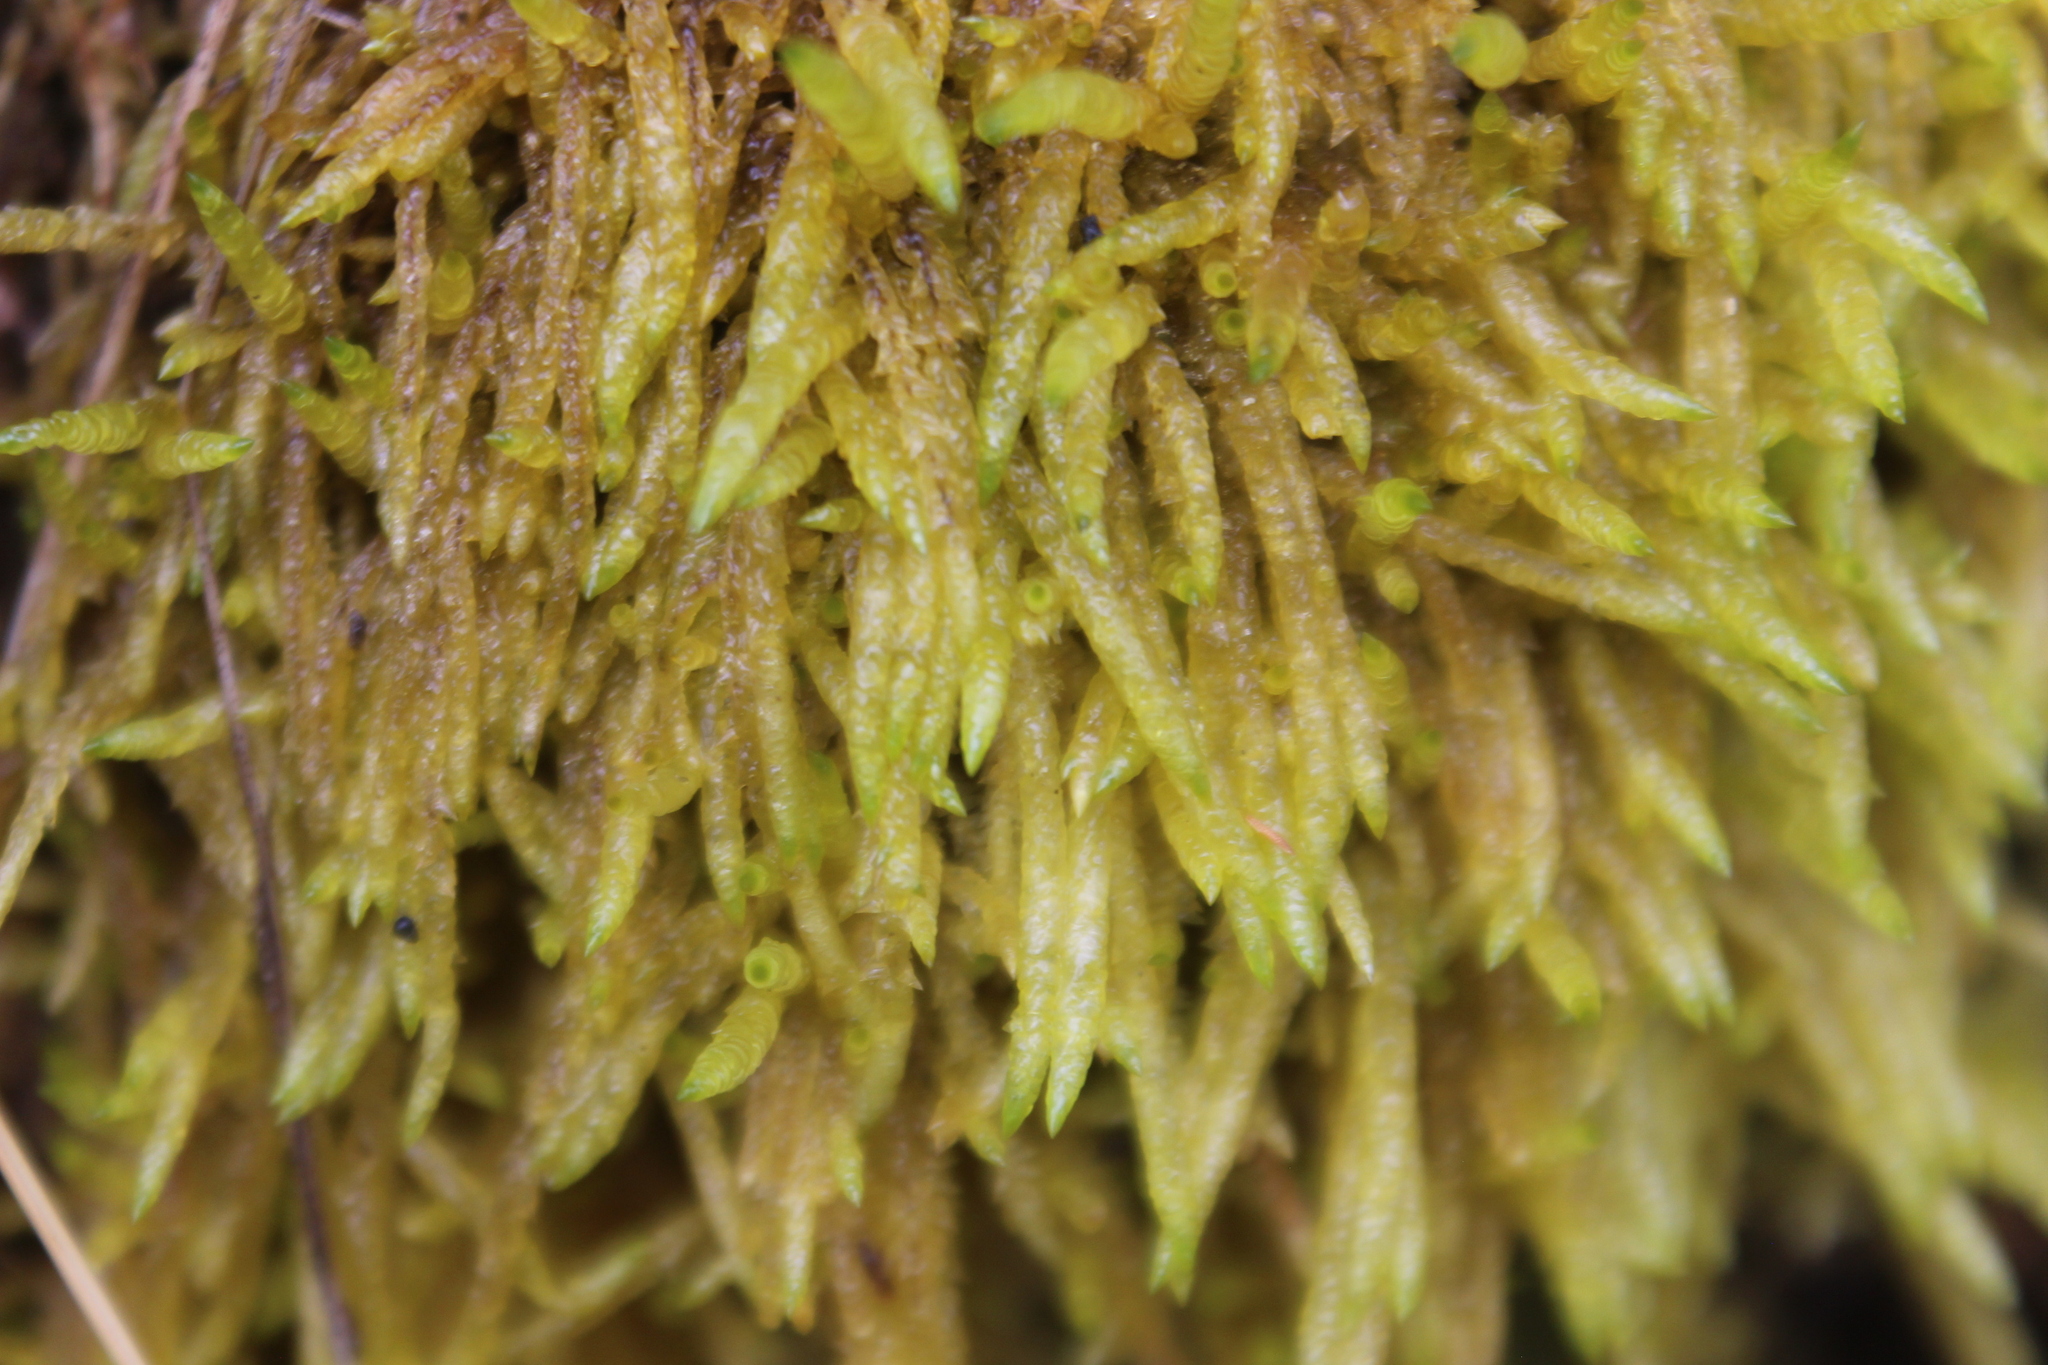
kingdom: Plantae
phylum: Bryophyta
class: Bryopsida
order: Hypnales
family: Acrocladiaceae
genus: Acrocladium
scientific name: Acrocladium chlamydophyllum
